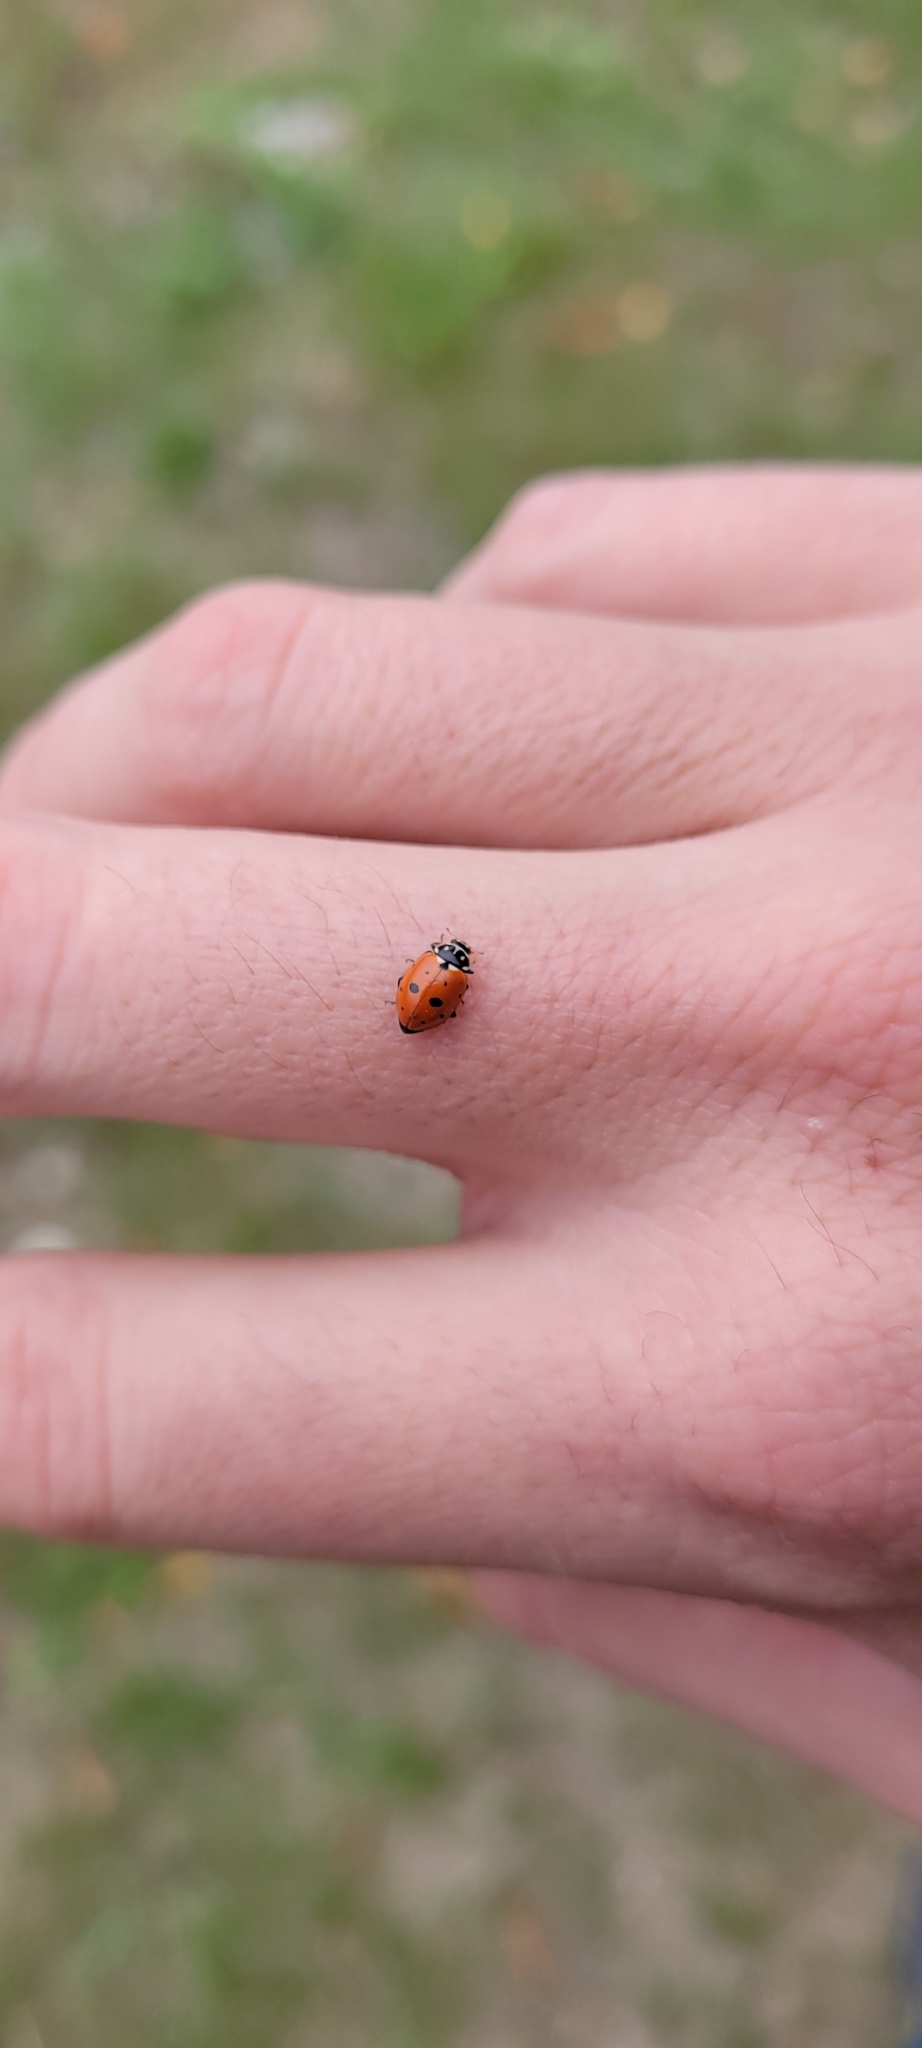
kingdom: Animalia
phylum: Arthropoda
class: Insecta
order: Coleoptera
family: Coccinellidae
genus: Hippodamia
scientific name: Hippodamia variegata
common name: Ladybird beetle
